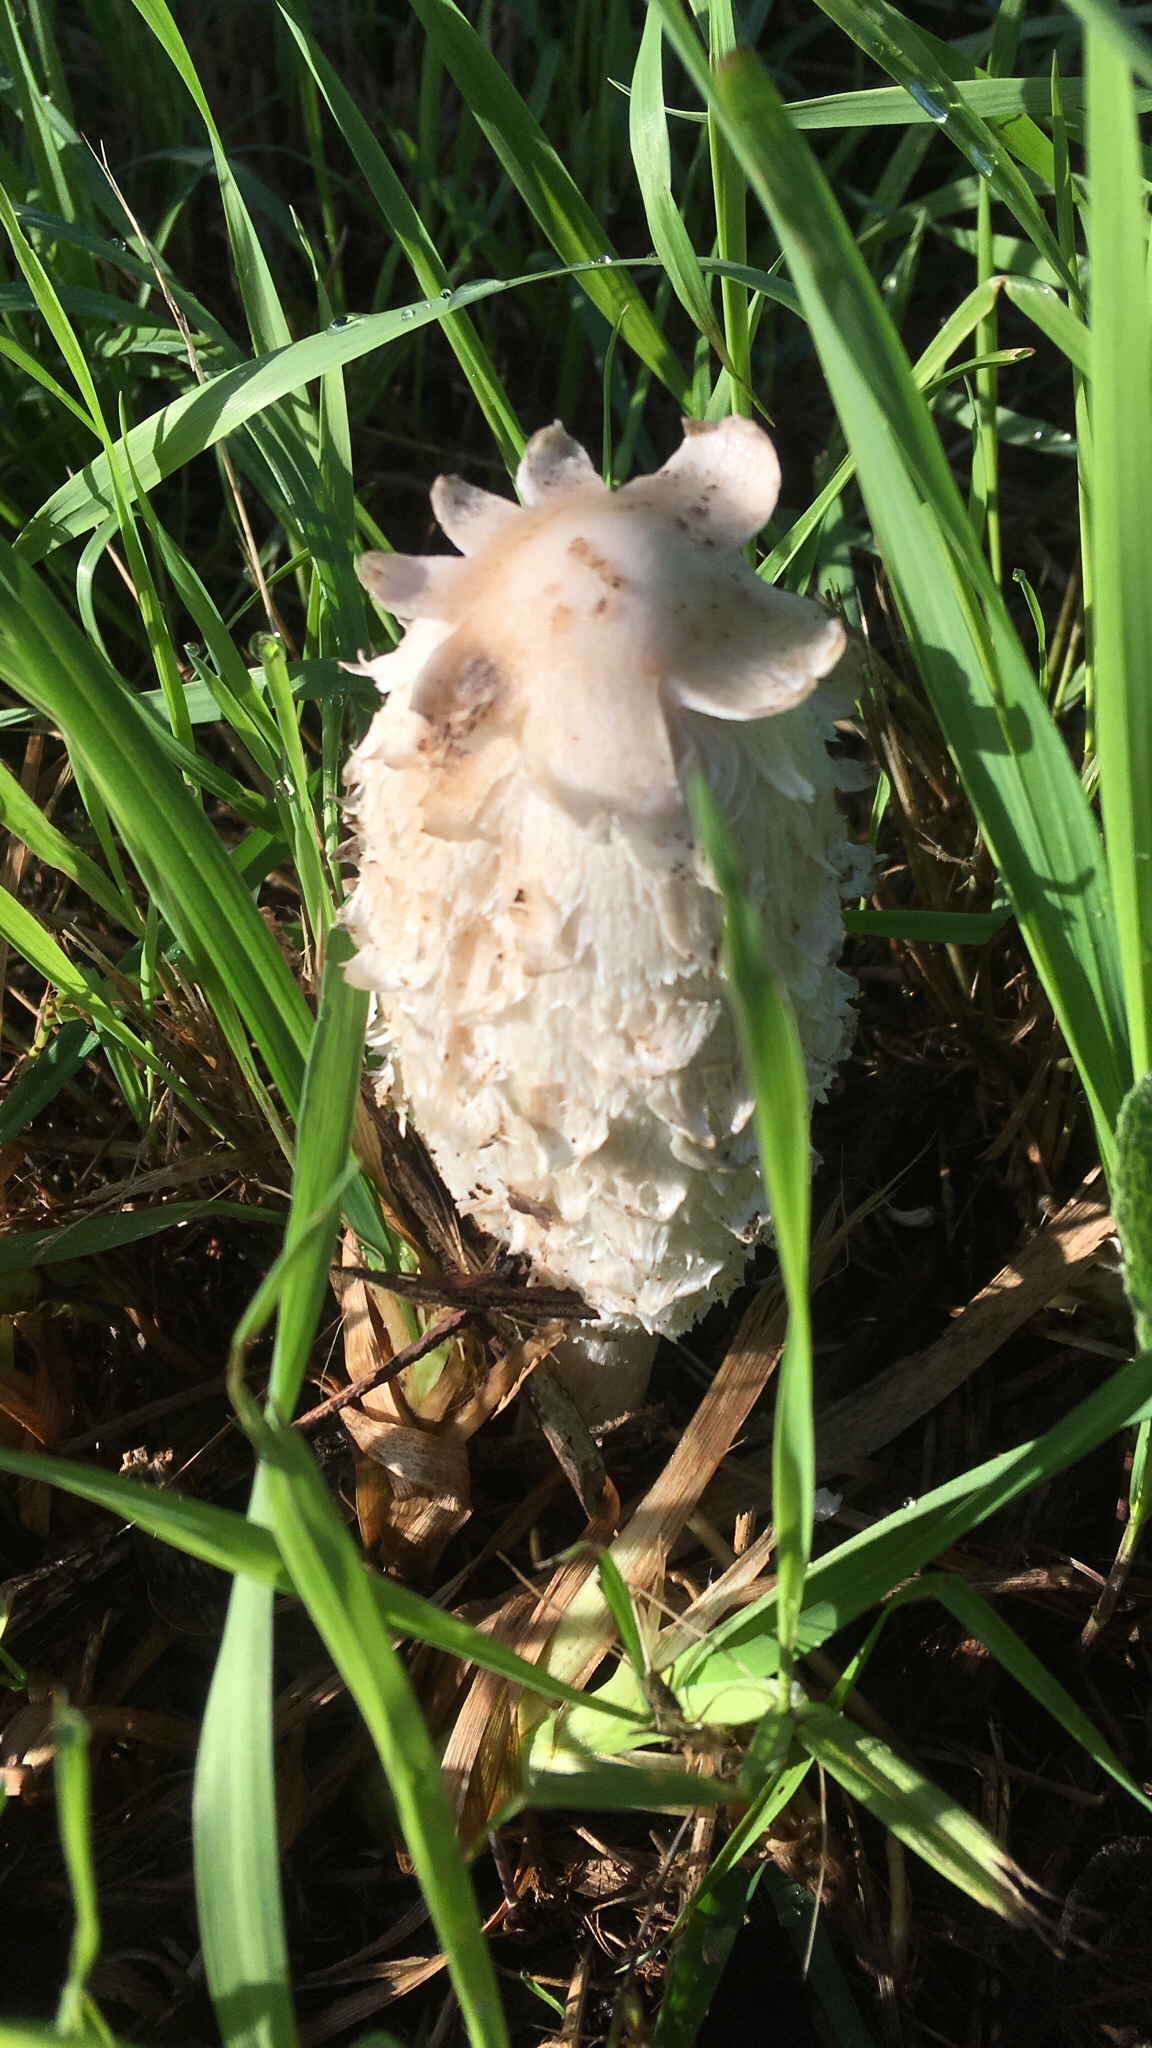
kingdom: Fungi
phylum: Basidiomycota
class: Agaricomycetes
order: Agaricales
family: Agaricaceae
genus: Coprinus
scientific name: Coprinus comatus
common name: Lawyer's wig
